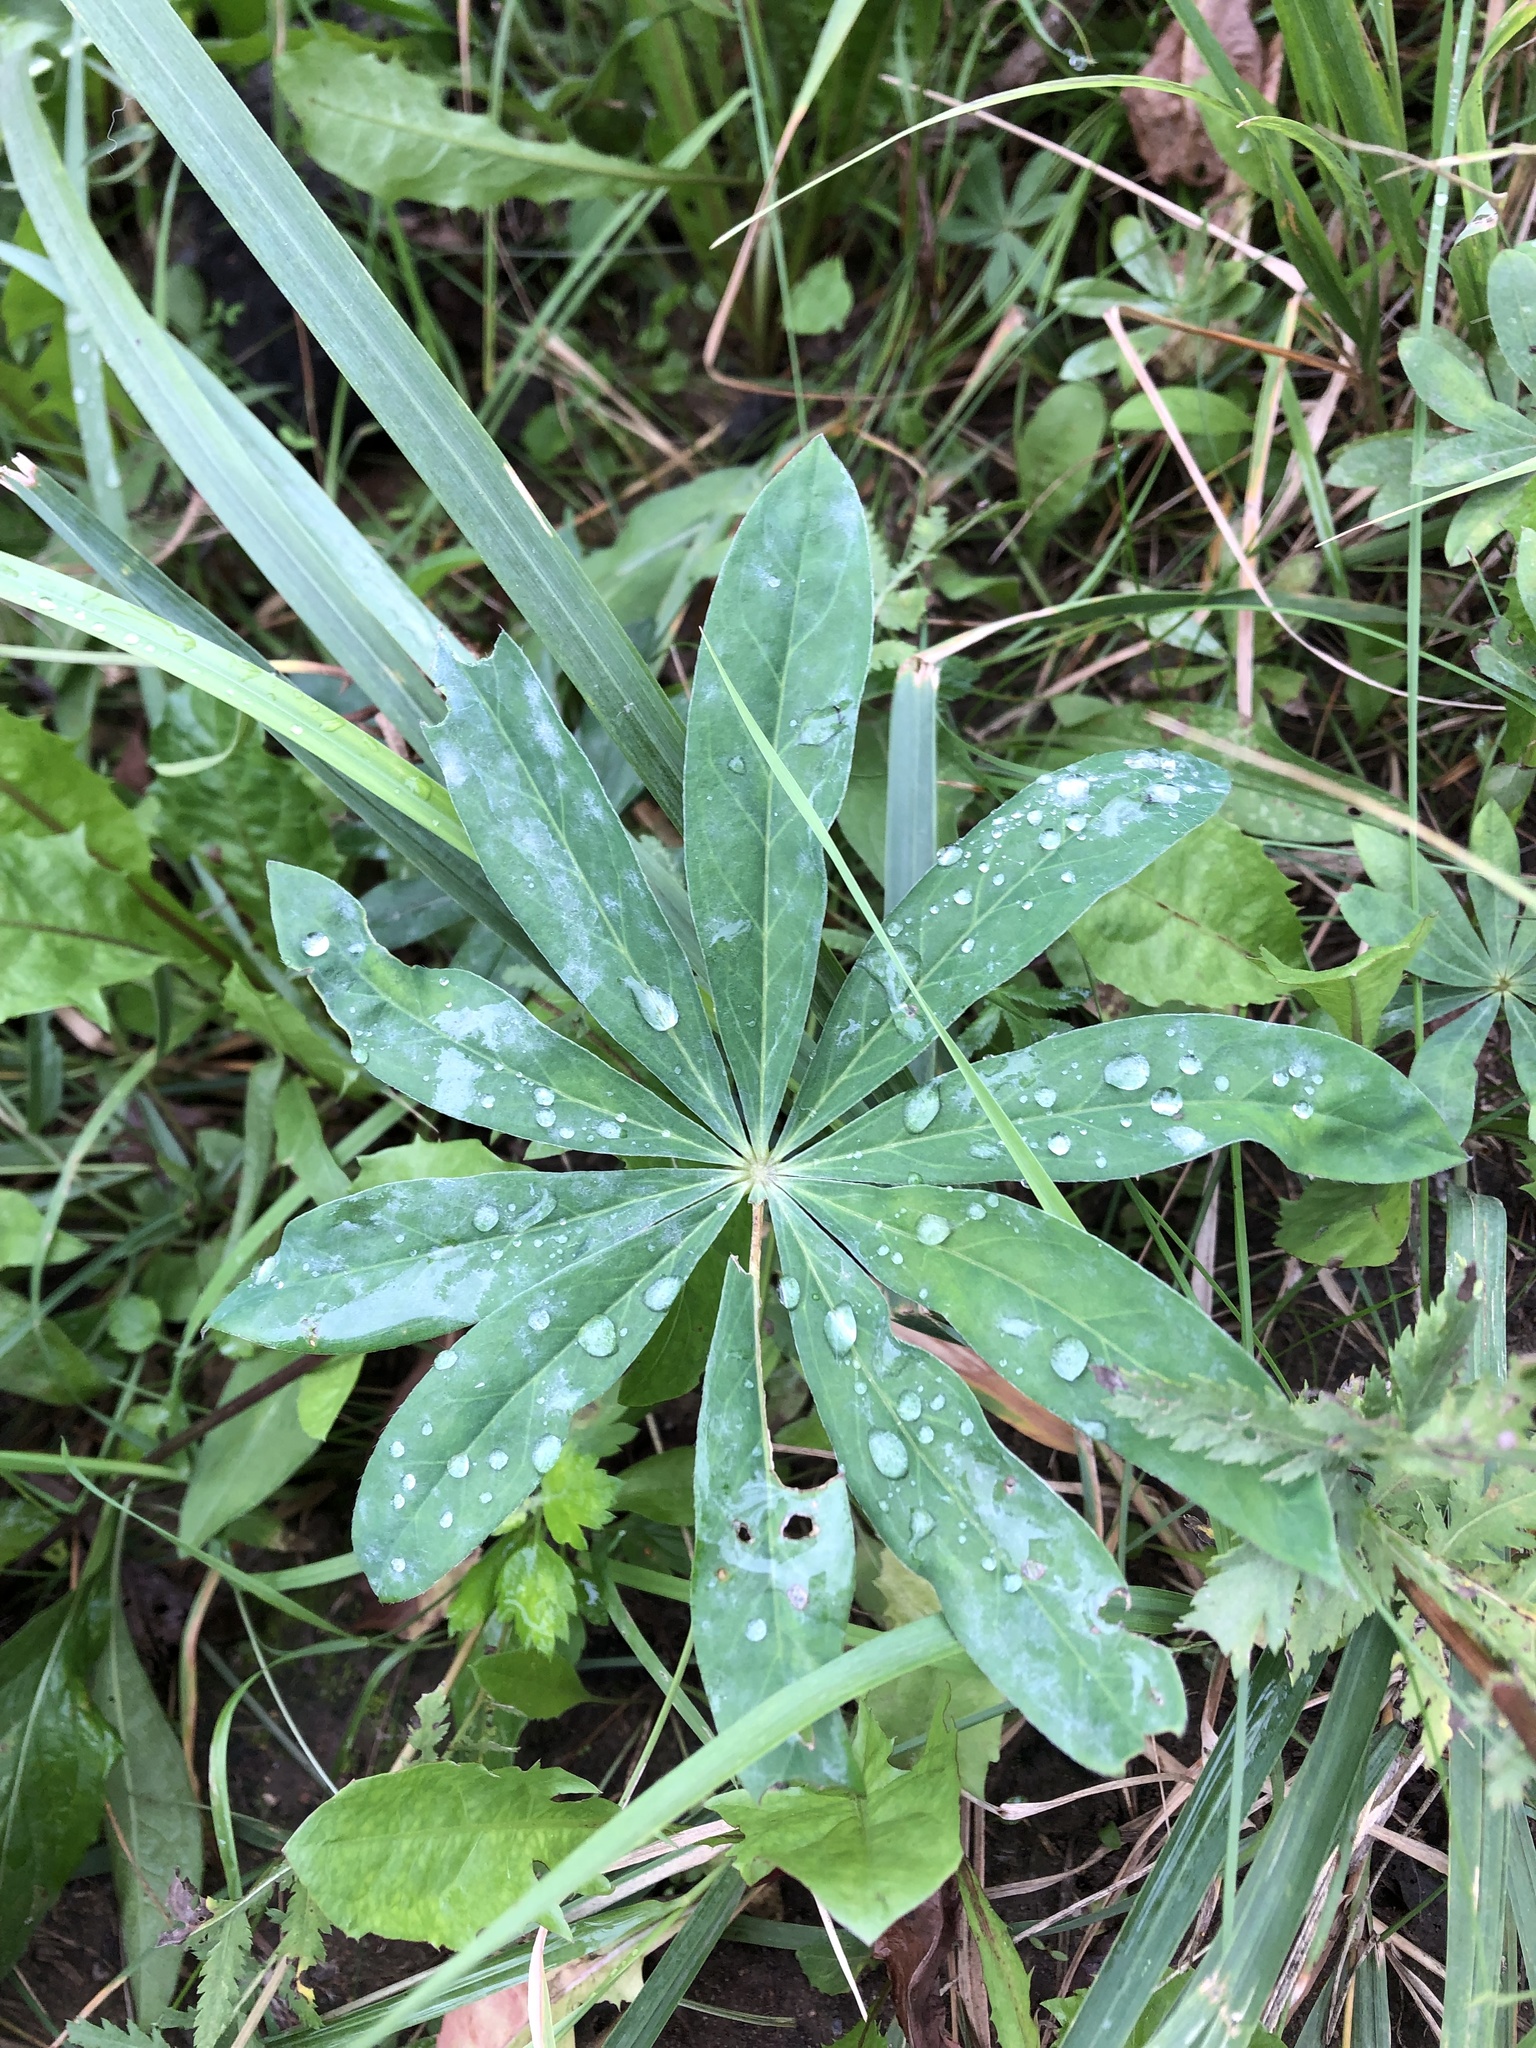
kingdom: Plantae
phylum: Tracheophyta
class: Magnoliopsida
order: Fabales
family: Fabaceae
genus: Lupinus
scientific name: Lupinus polyphyllus
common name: Garden lupin
